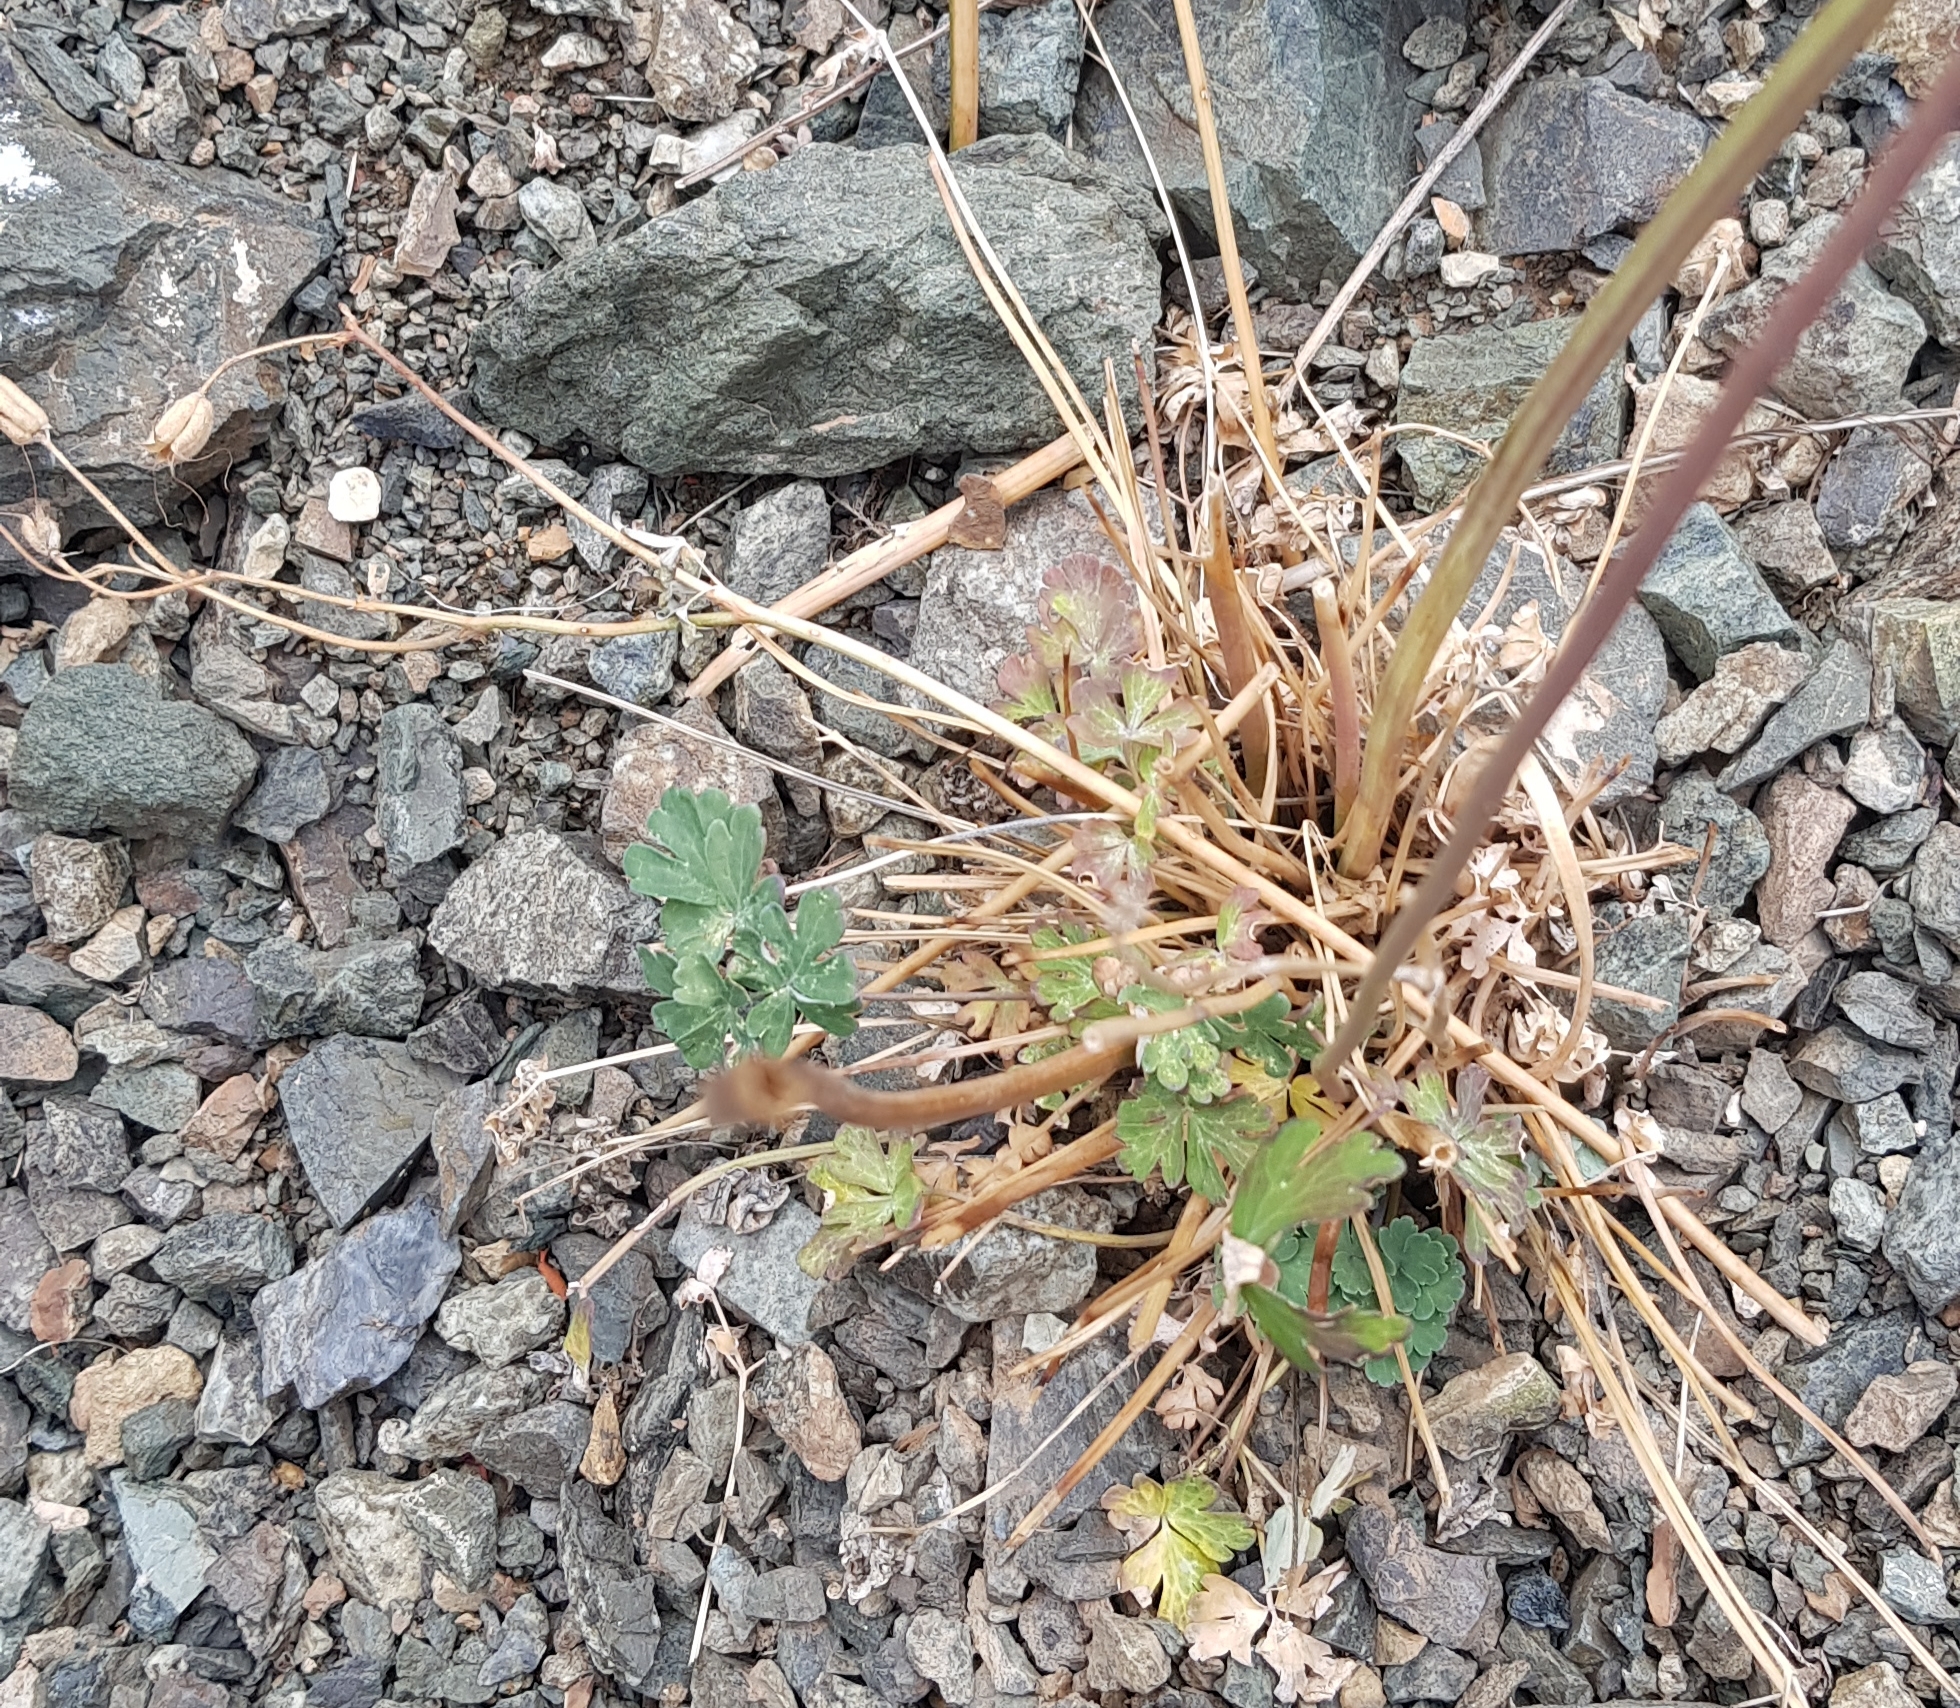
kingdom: Plantae
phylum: Tracheophyta
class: Magnoliopsida
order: Ranunculales
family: Ranunculaceae
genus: Aquilegia
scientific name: Aquilegia viridiflora
